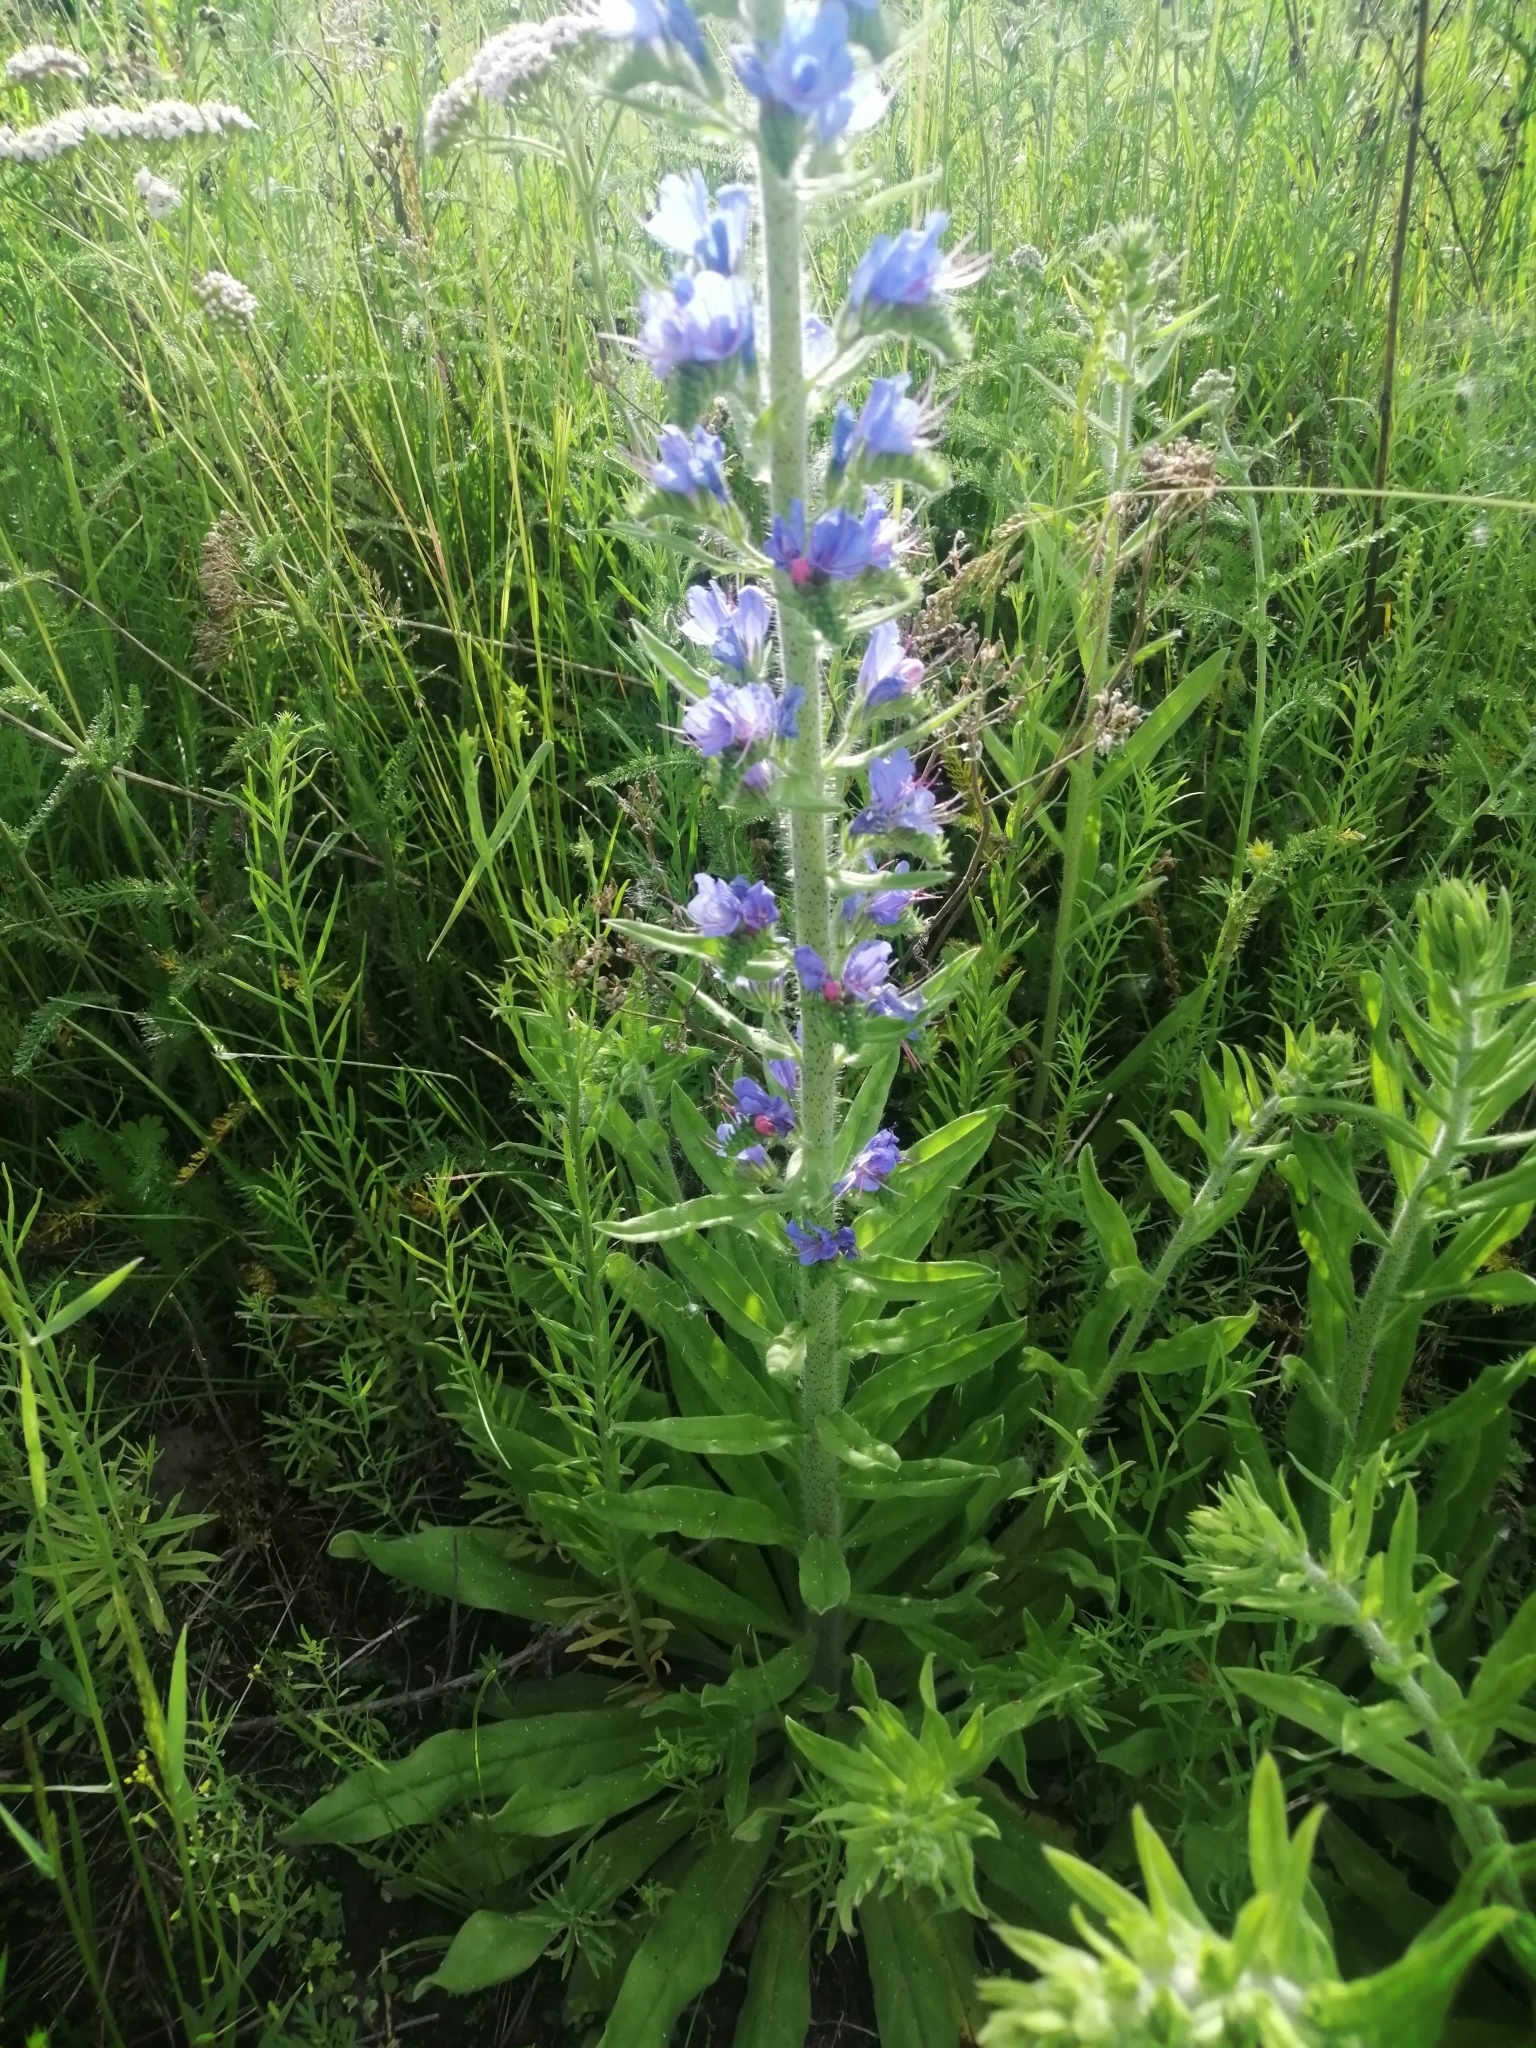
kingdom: Plantae
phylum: Tracheophyta
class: Magnoliopsida
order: Boraginales
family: Boraginaceae
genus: Echium
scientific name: Echium vulgare
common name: Common viper's bugloss
